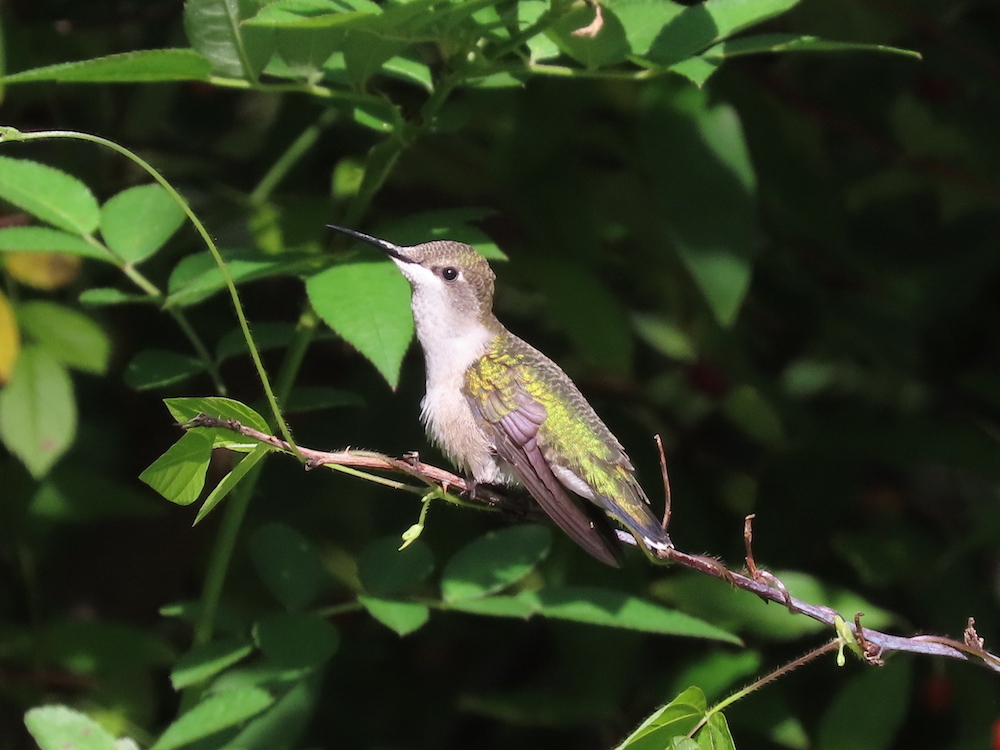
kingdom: Animalia
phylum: Chordata
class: Aves
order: Apodiformes
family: Trochilidae
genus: Archilochus
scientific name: Archilochus colubris
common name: Ruby-throated hummingbird
